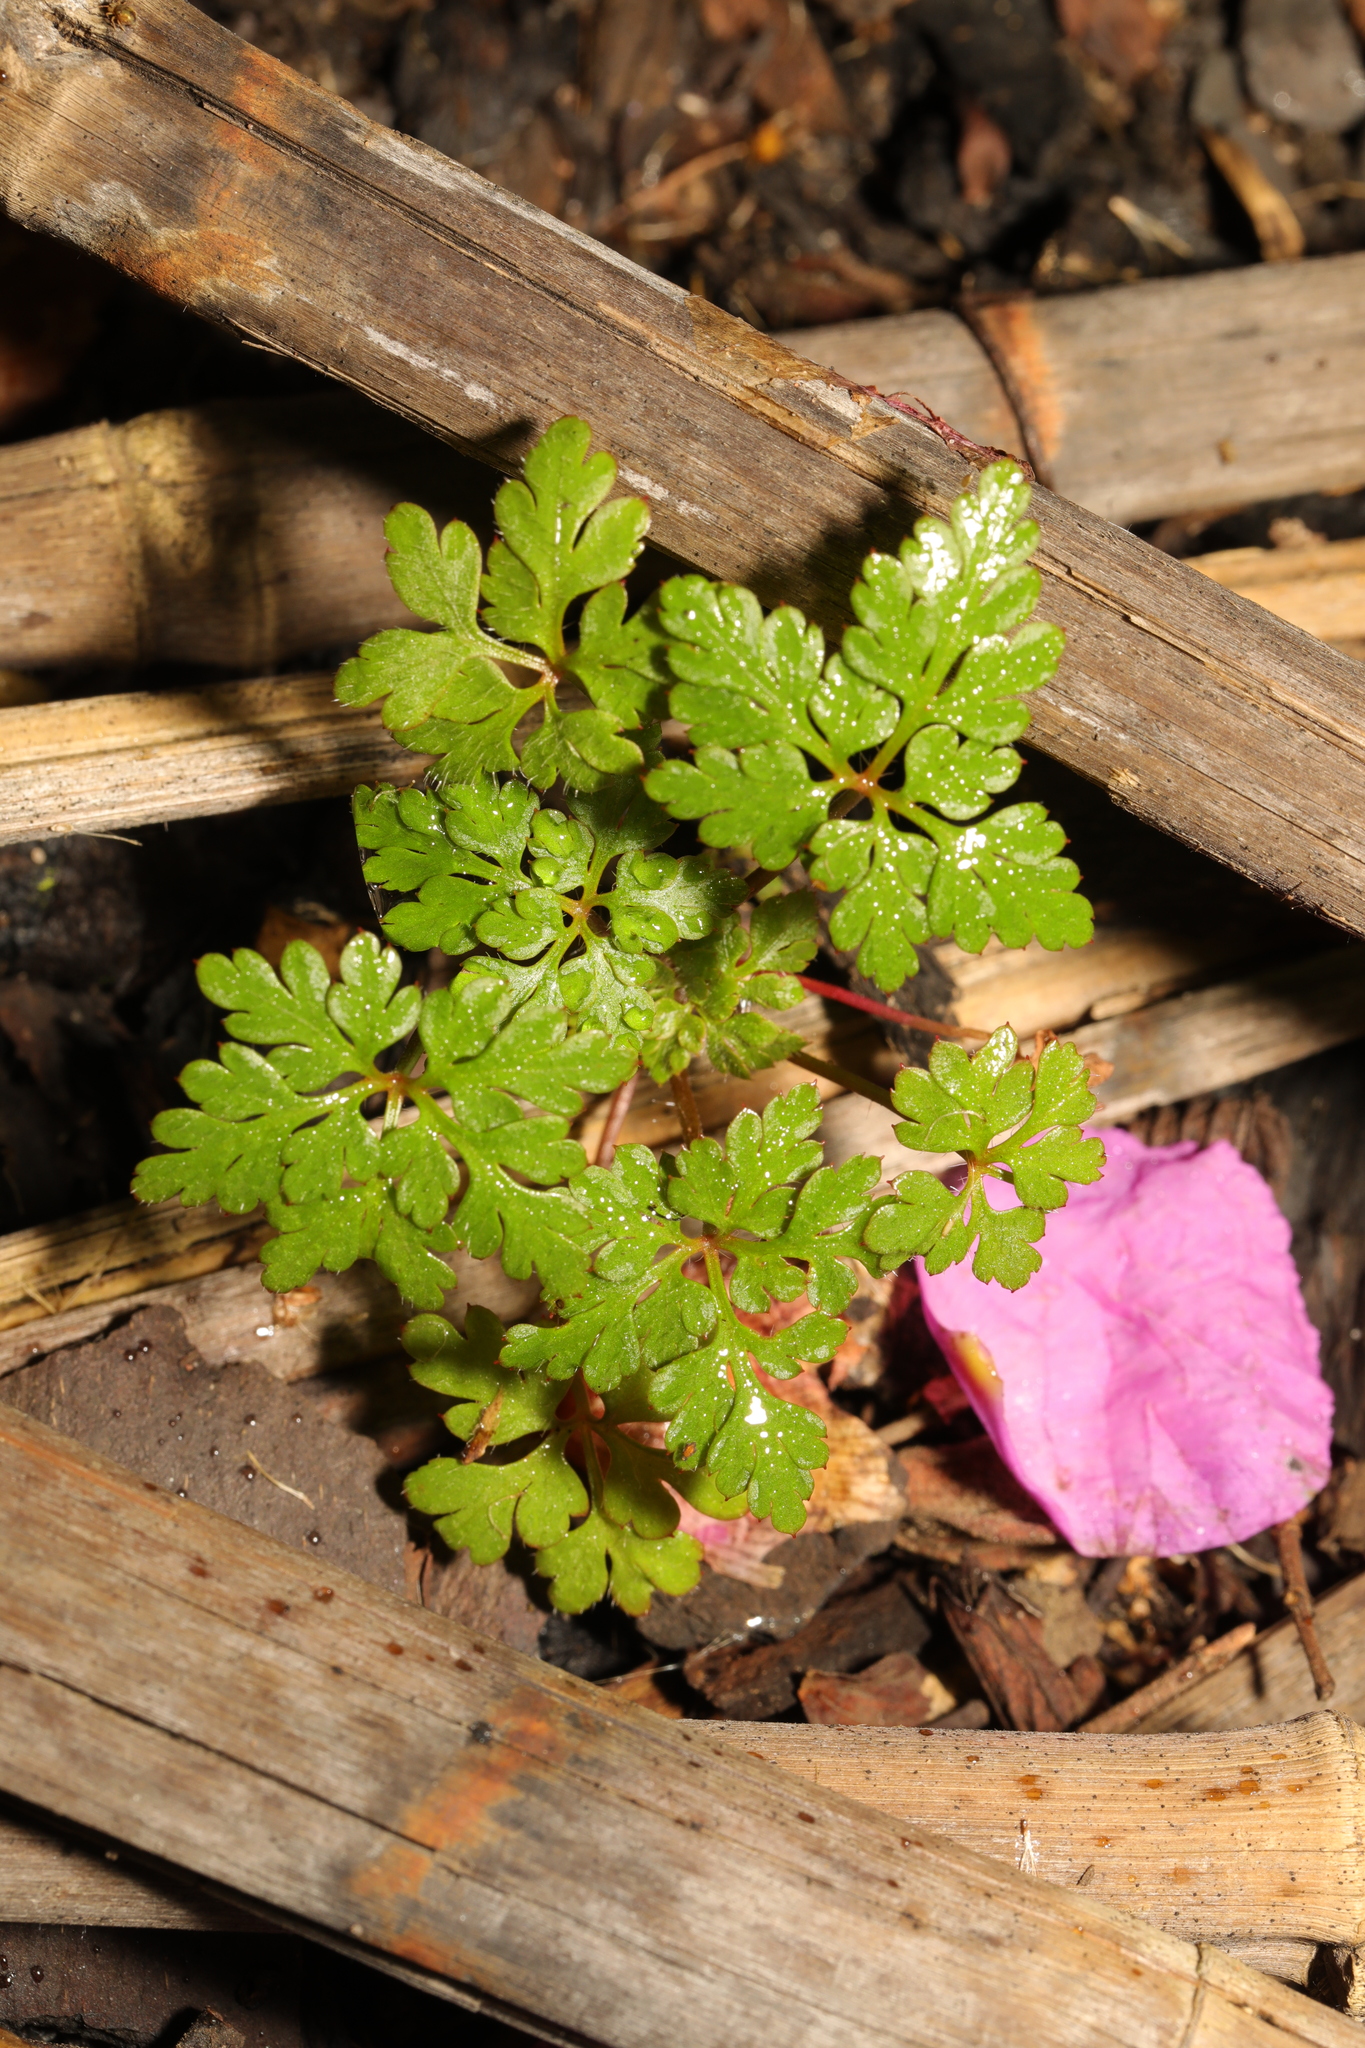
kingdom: Plantae
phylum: Tracheophyta
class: Magnoliopsida
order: Geraniales
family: Geraniaceae
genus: Geranium
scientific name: Geranium robertianum
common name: Herb-robert
